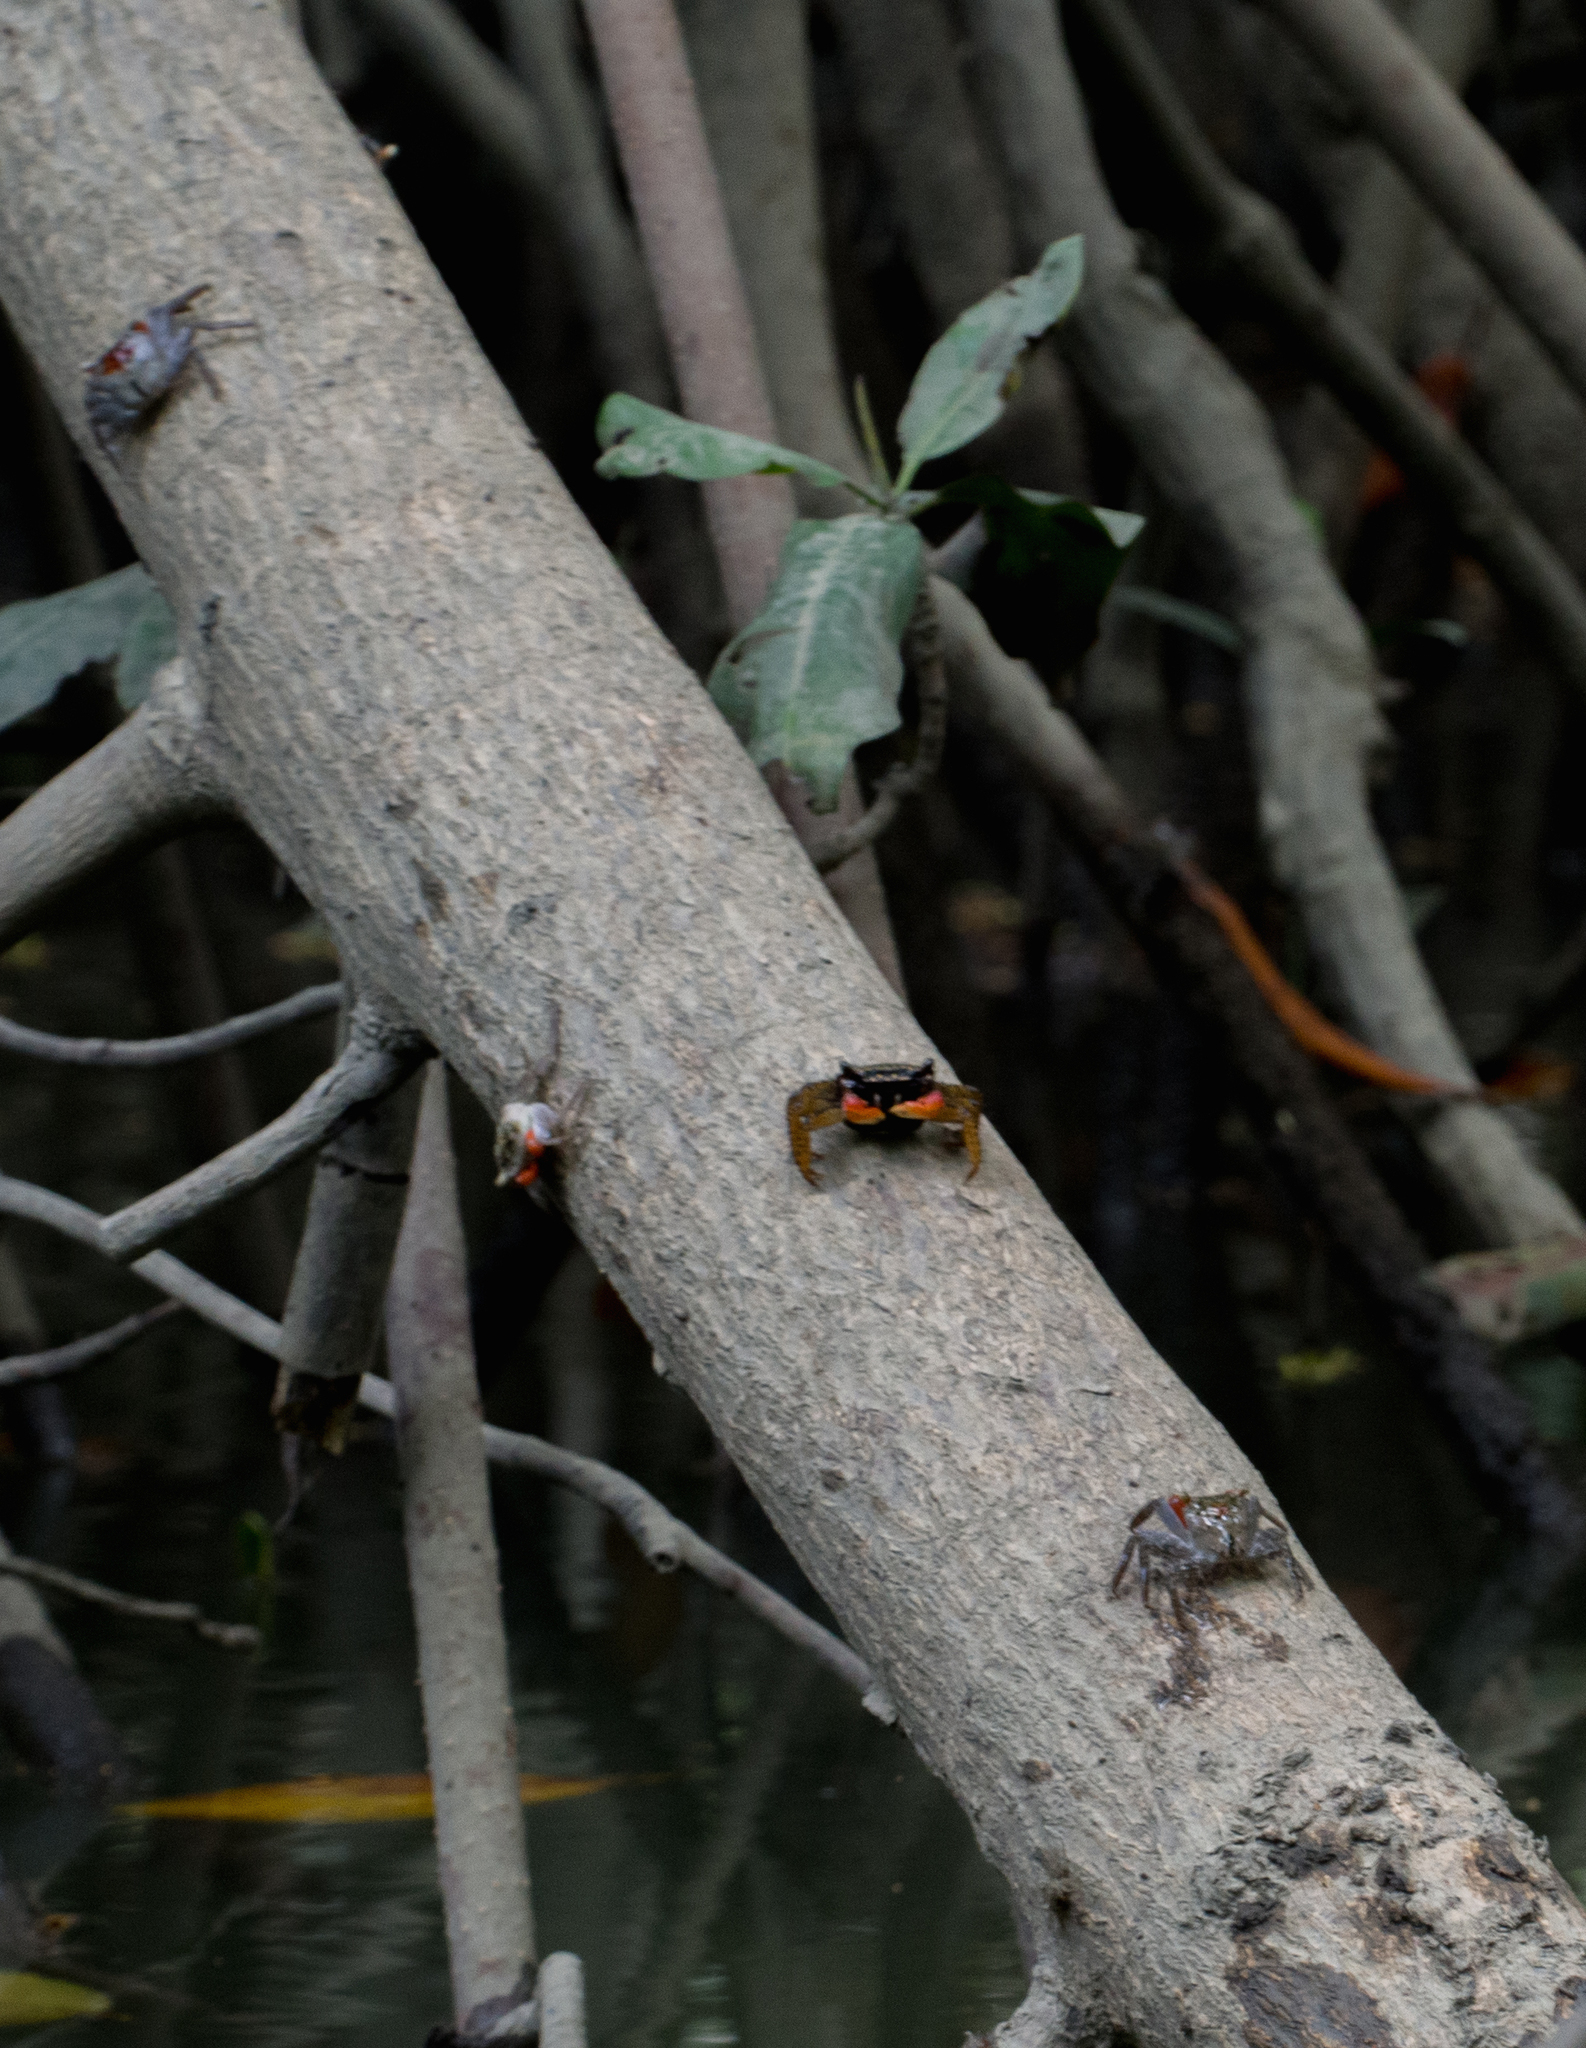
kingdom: Animalia
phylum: Arthropoda
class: Malacostraca
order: Decapoda
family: Grapsidae
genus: Goniopsis
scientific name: Goniopsis pulchra
